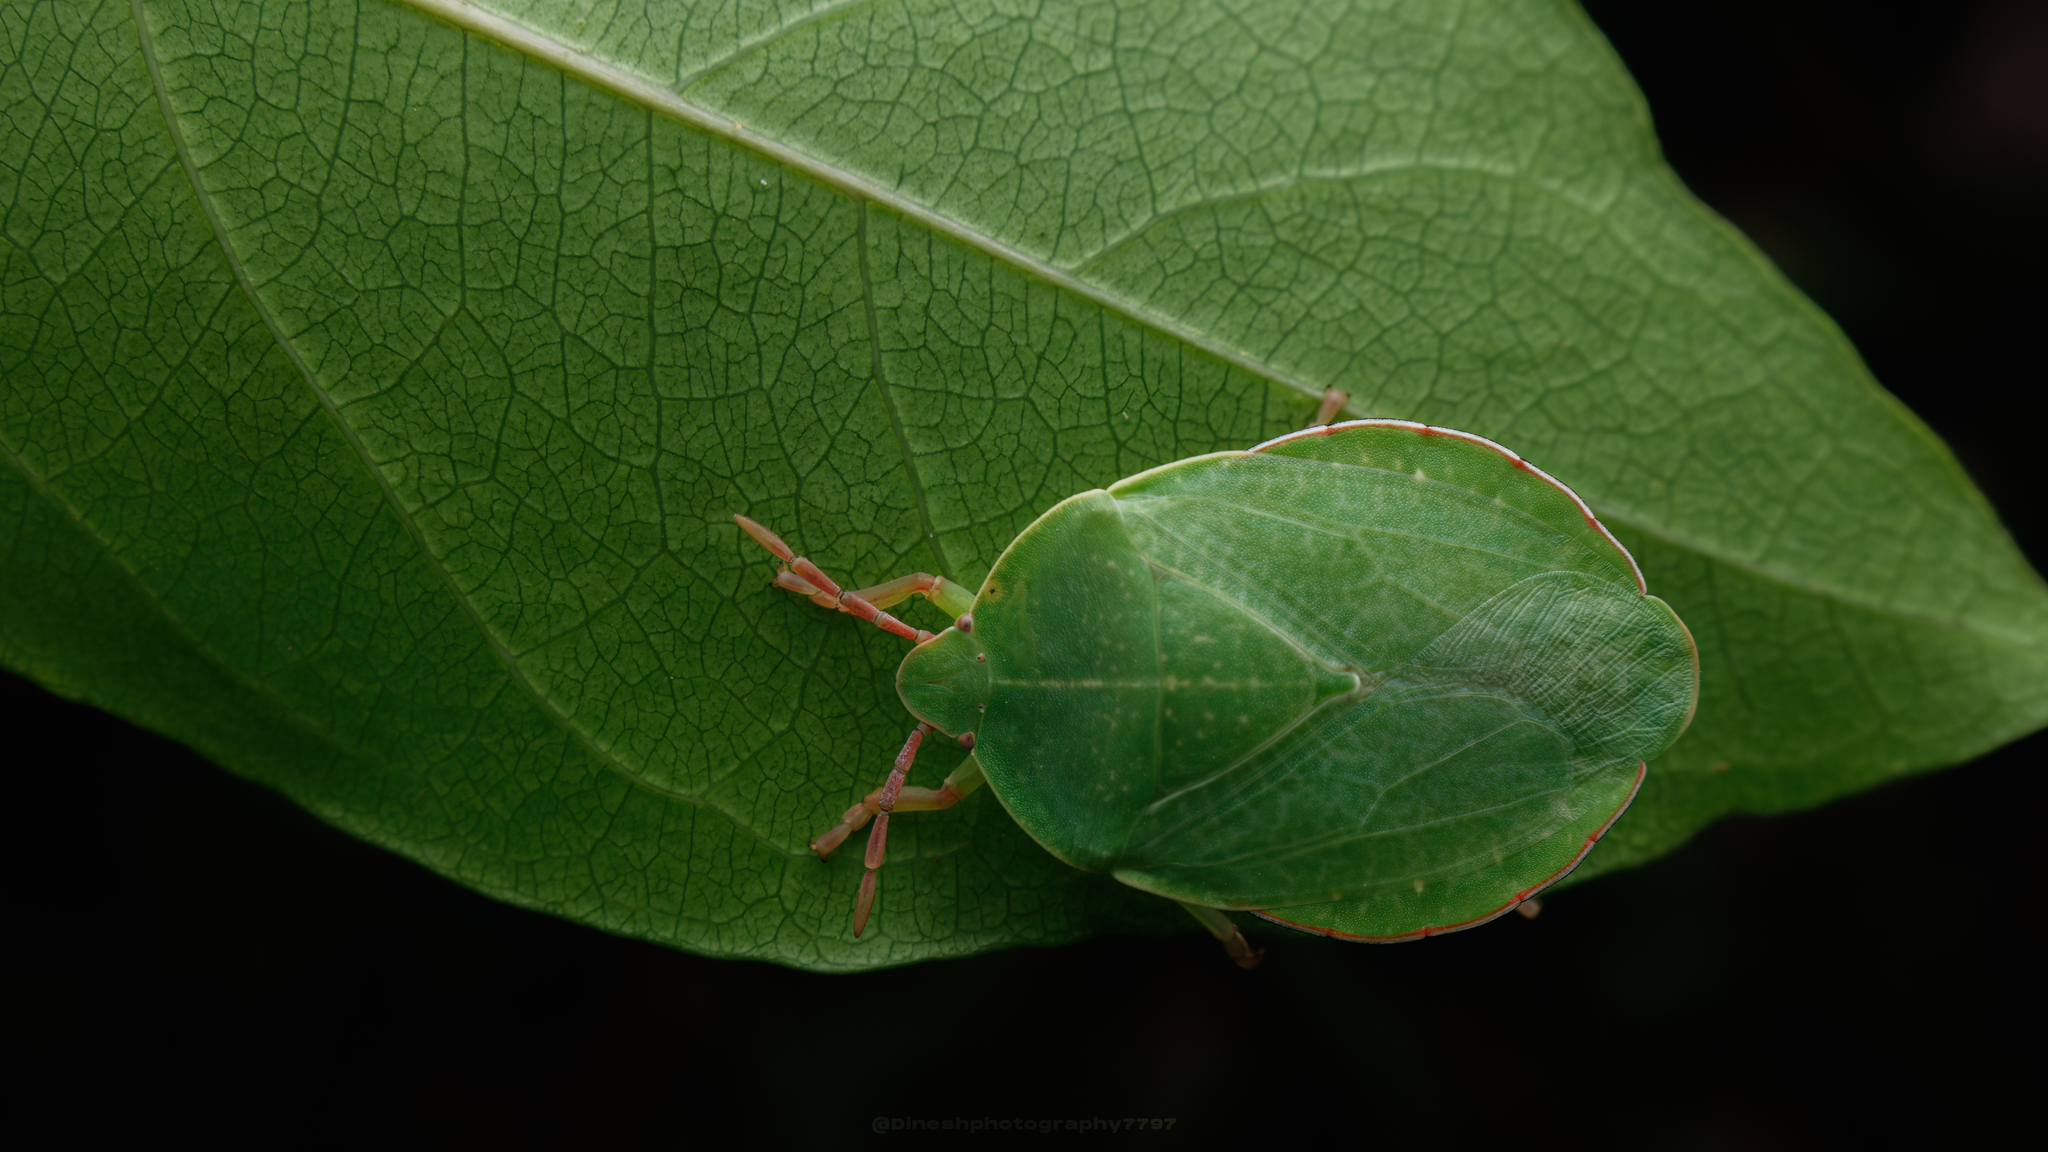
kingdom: Animalia
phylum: Arthropoda
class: Insecta
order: Hemiptera
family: Tessaratomidae
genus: Empysarus
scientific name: Empysarus depressus
